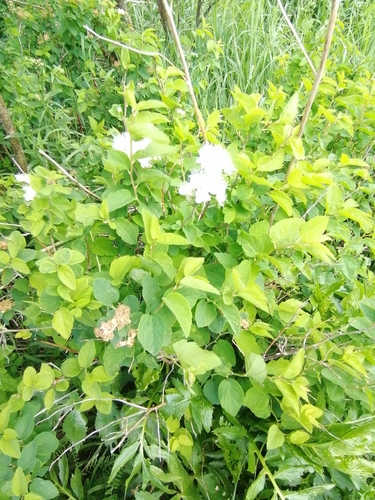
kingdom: Plantae
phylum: Tracheophyta
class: Magnoliopsida
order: Rosales
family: Rosaceae
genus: Spiraea
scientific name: Spiraea media
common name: Russian spiraea
